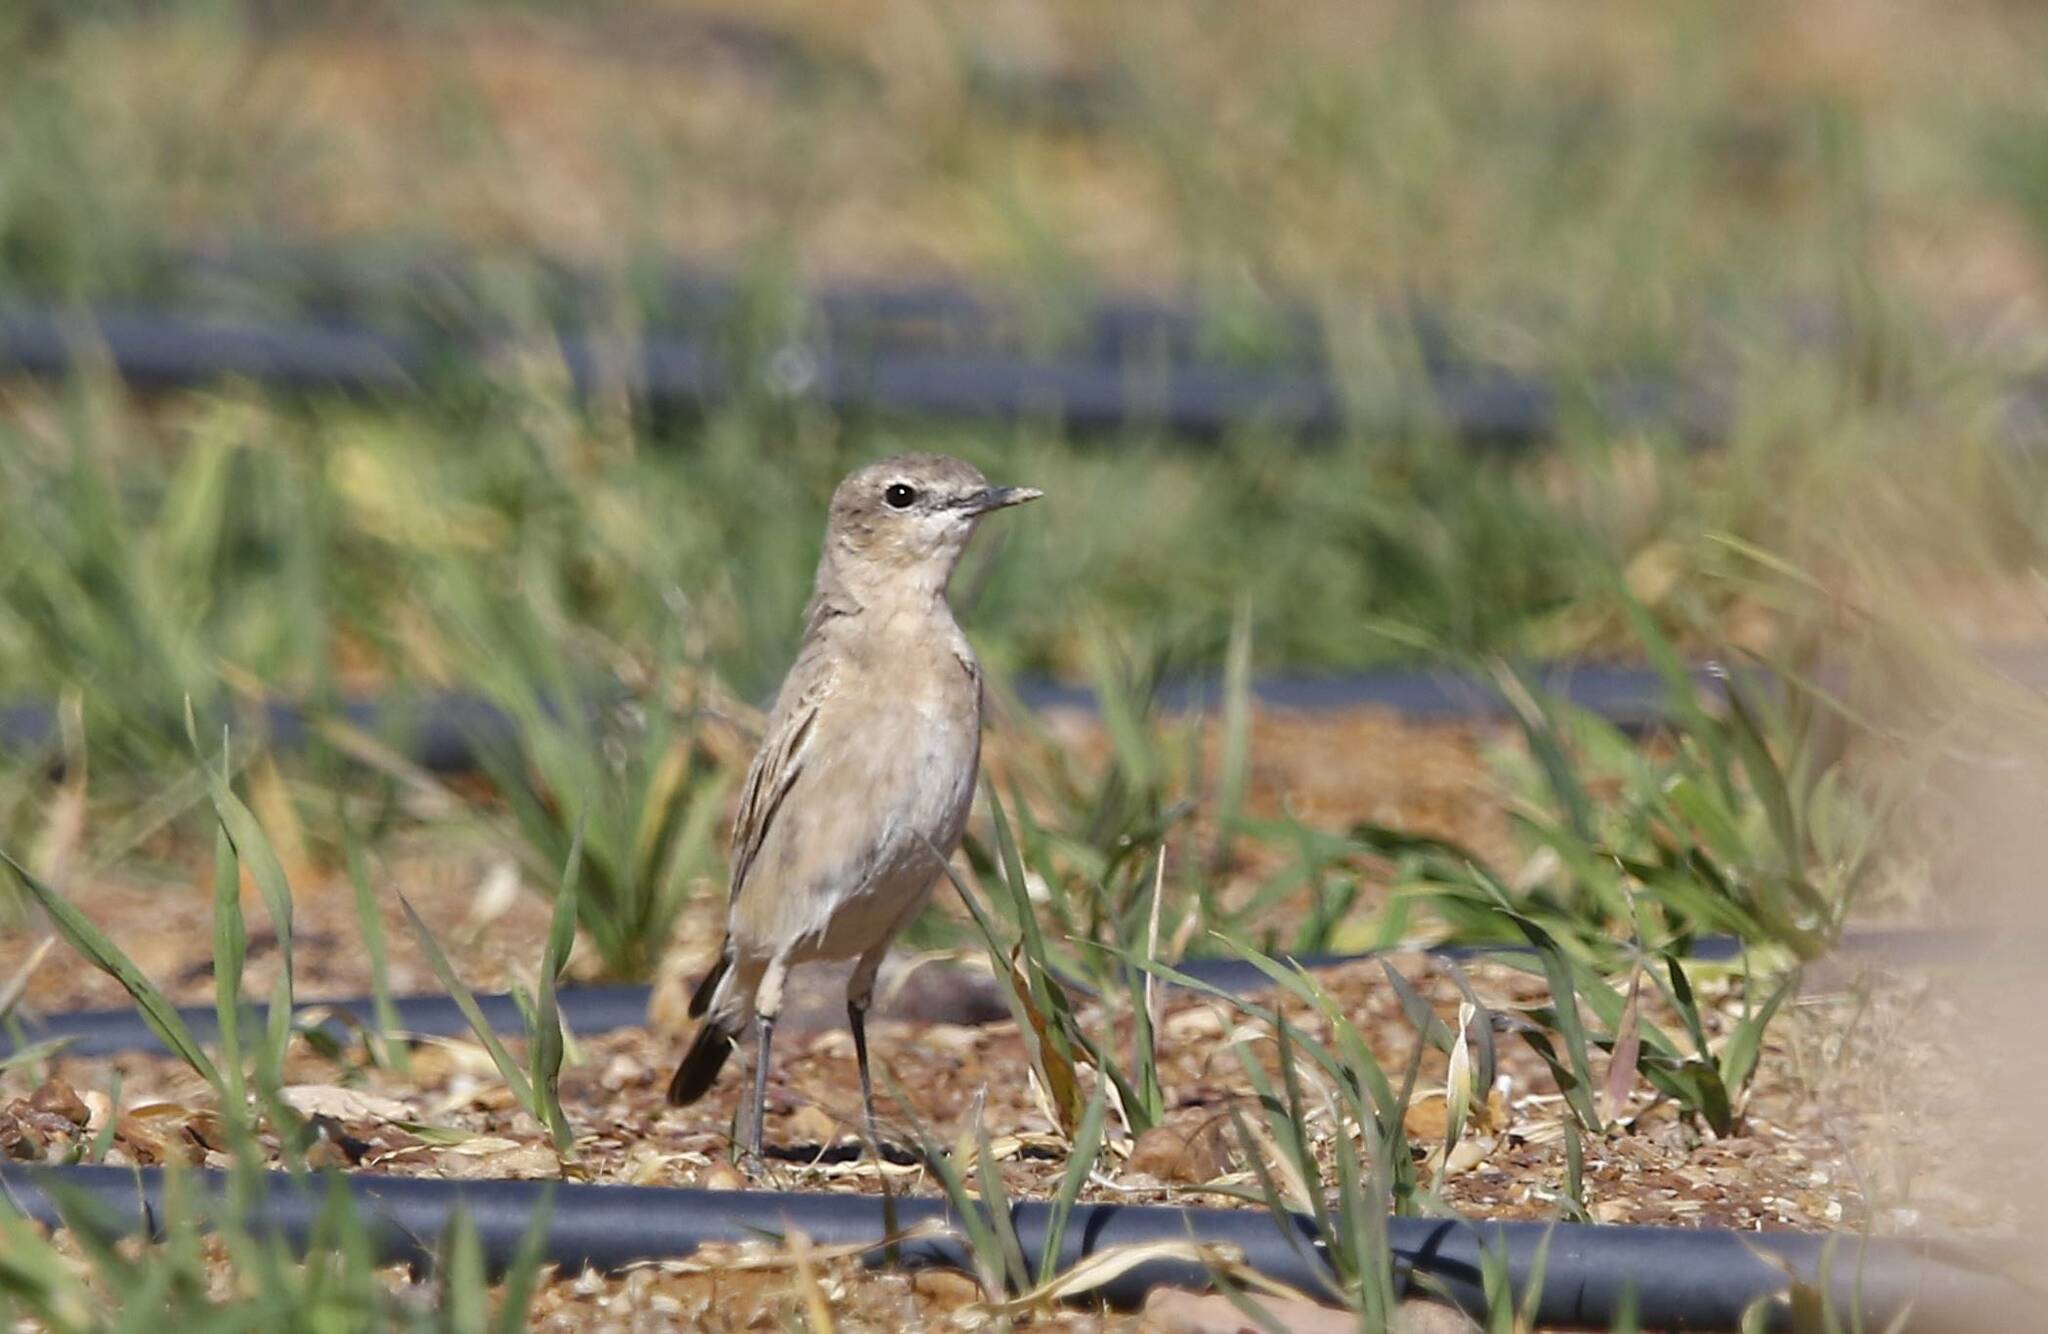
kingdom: Animalia
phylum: Chordata
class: Aves
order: Passeriformes
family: Muscicapidae
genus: Oenanthe
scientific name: Oenanthe isabellina
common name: Isabelline wheatear
